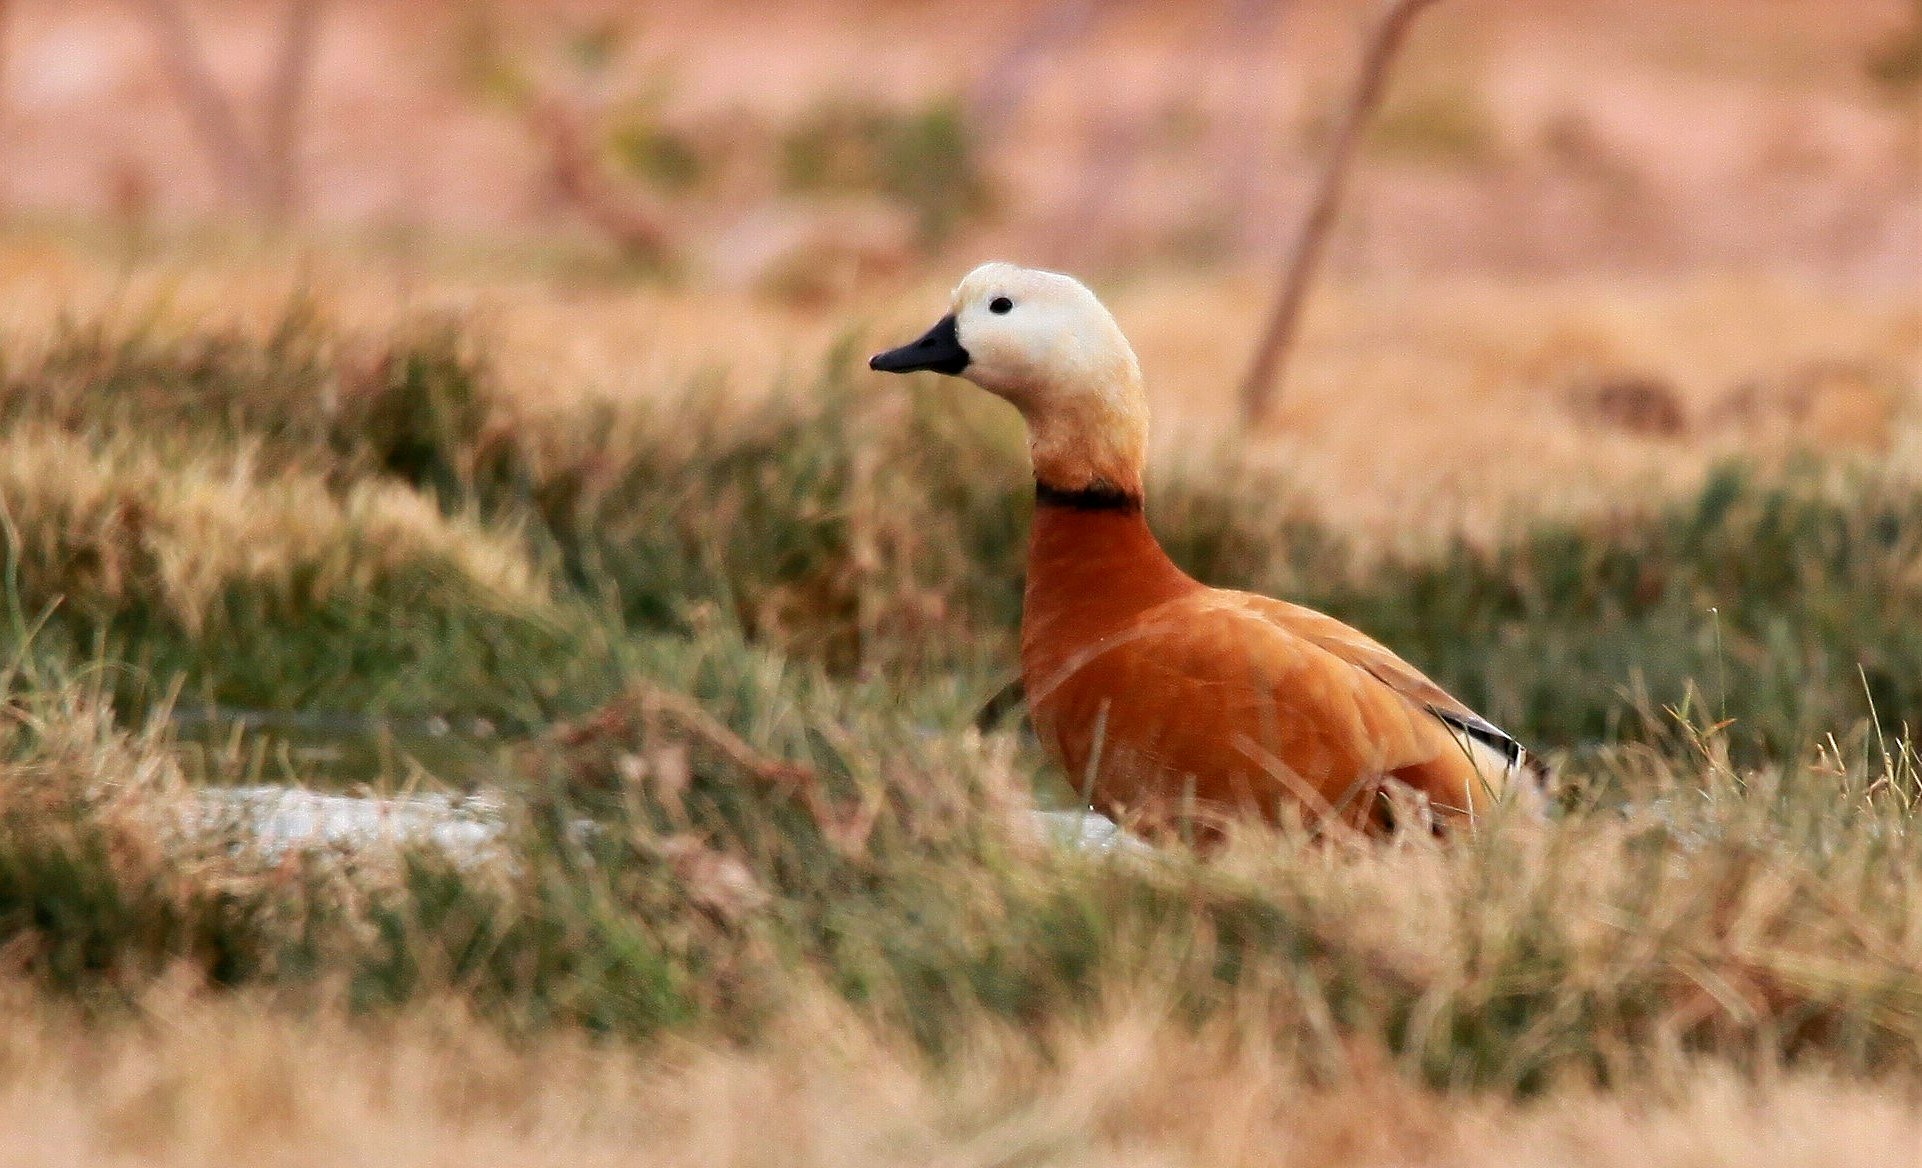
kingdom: Animalia
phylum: Chordata
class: Aves
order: Anseriformes
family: Anatidae
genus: Tadorna
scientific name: Tadorna ferruginea
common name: Ruddy shelduck
